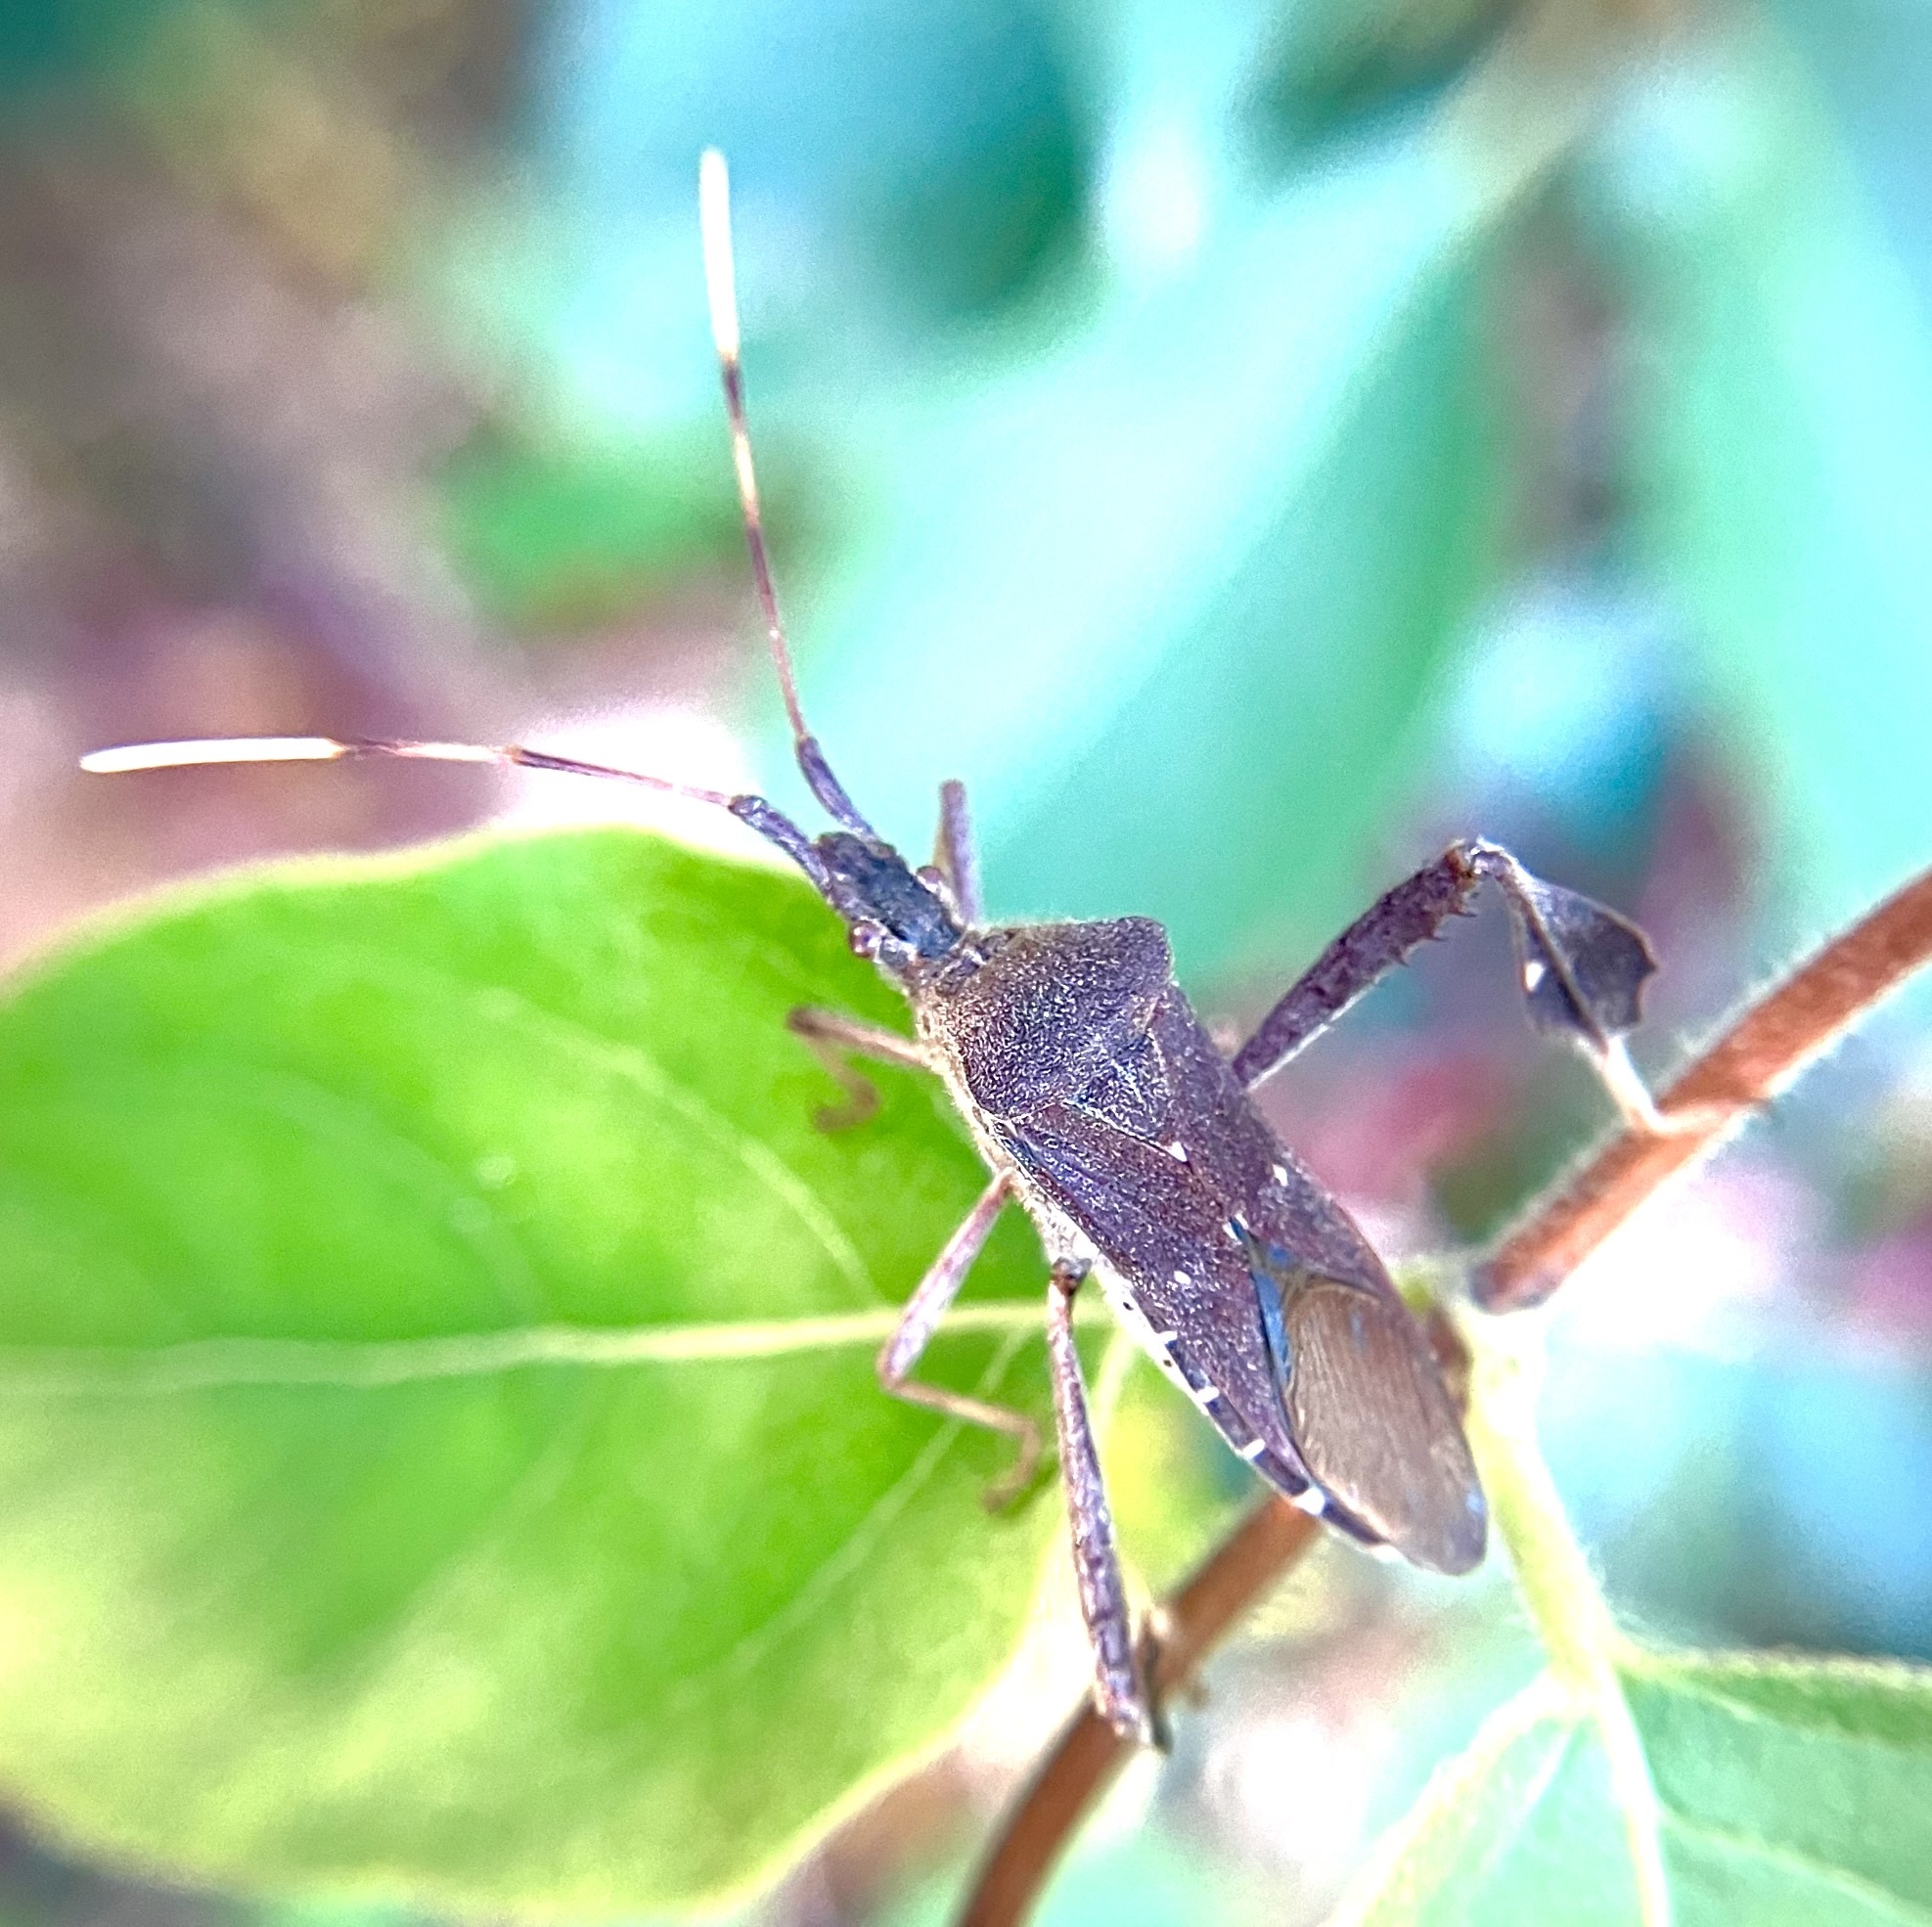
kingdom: Animalia
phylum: Arthropoda
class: Insecta
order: Hemiptera
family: Coreidae
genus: Leptoglossus
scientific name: Leptoglossus oppositus
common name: Northern leaf-footed bug
